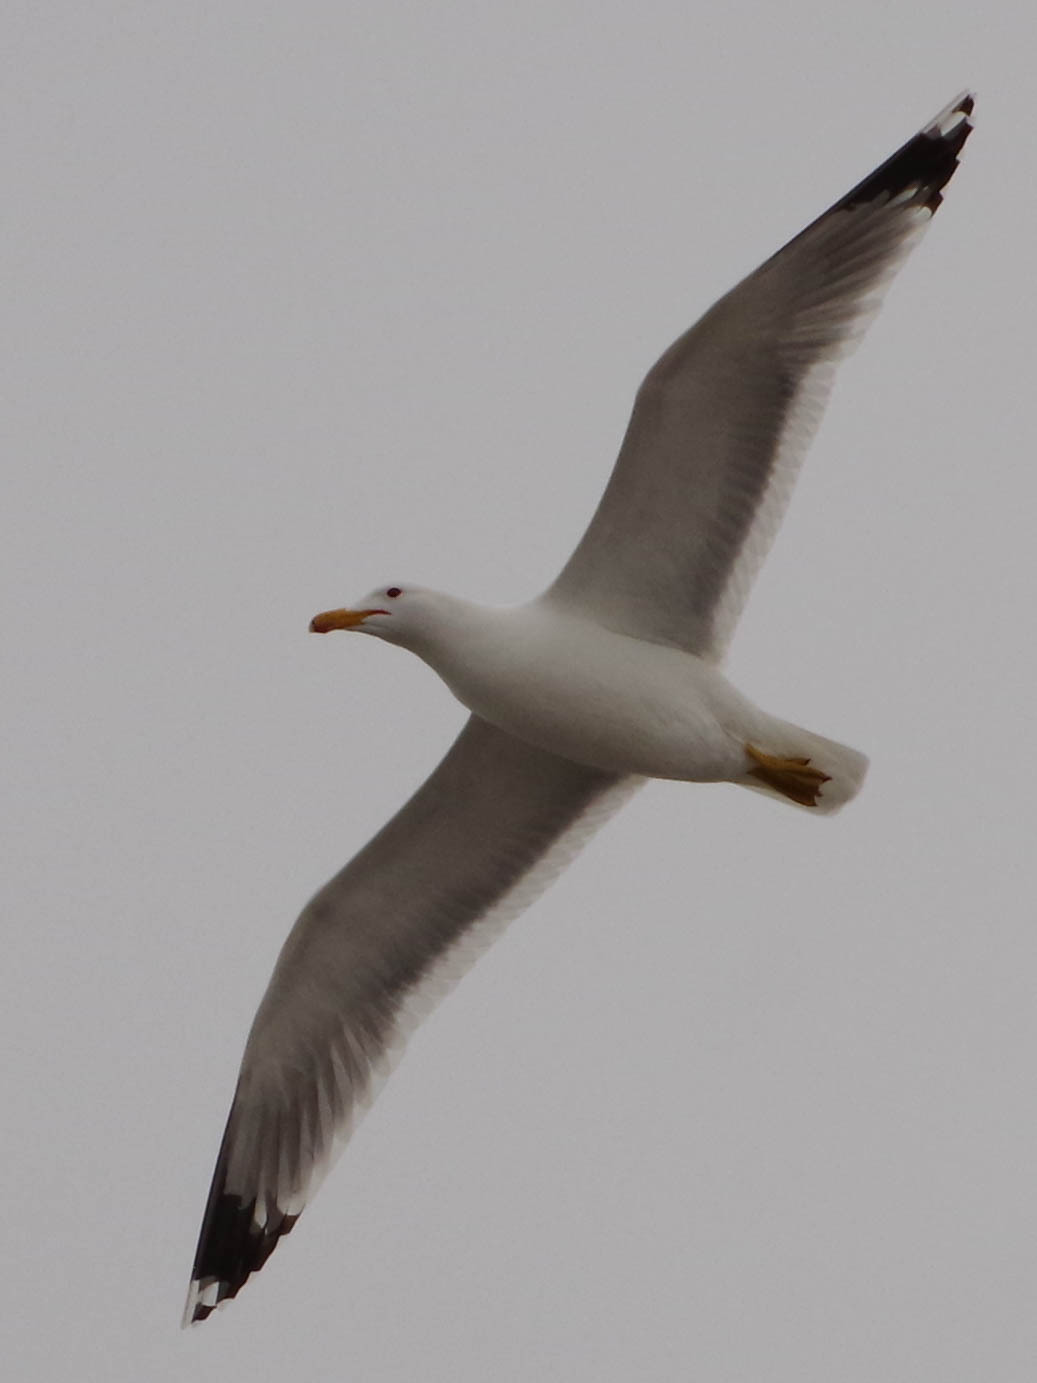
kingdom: Animalia
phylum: Chordata
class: Aves
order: Charadriiformes
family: Laridae
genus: Larus
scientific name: Larus californicus
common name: California gull
